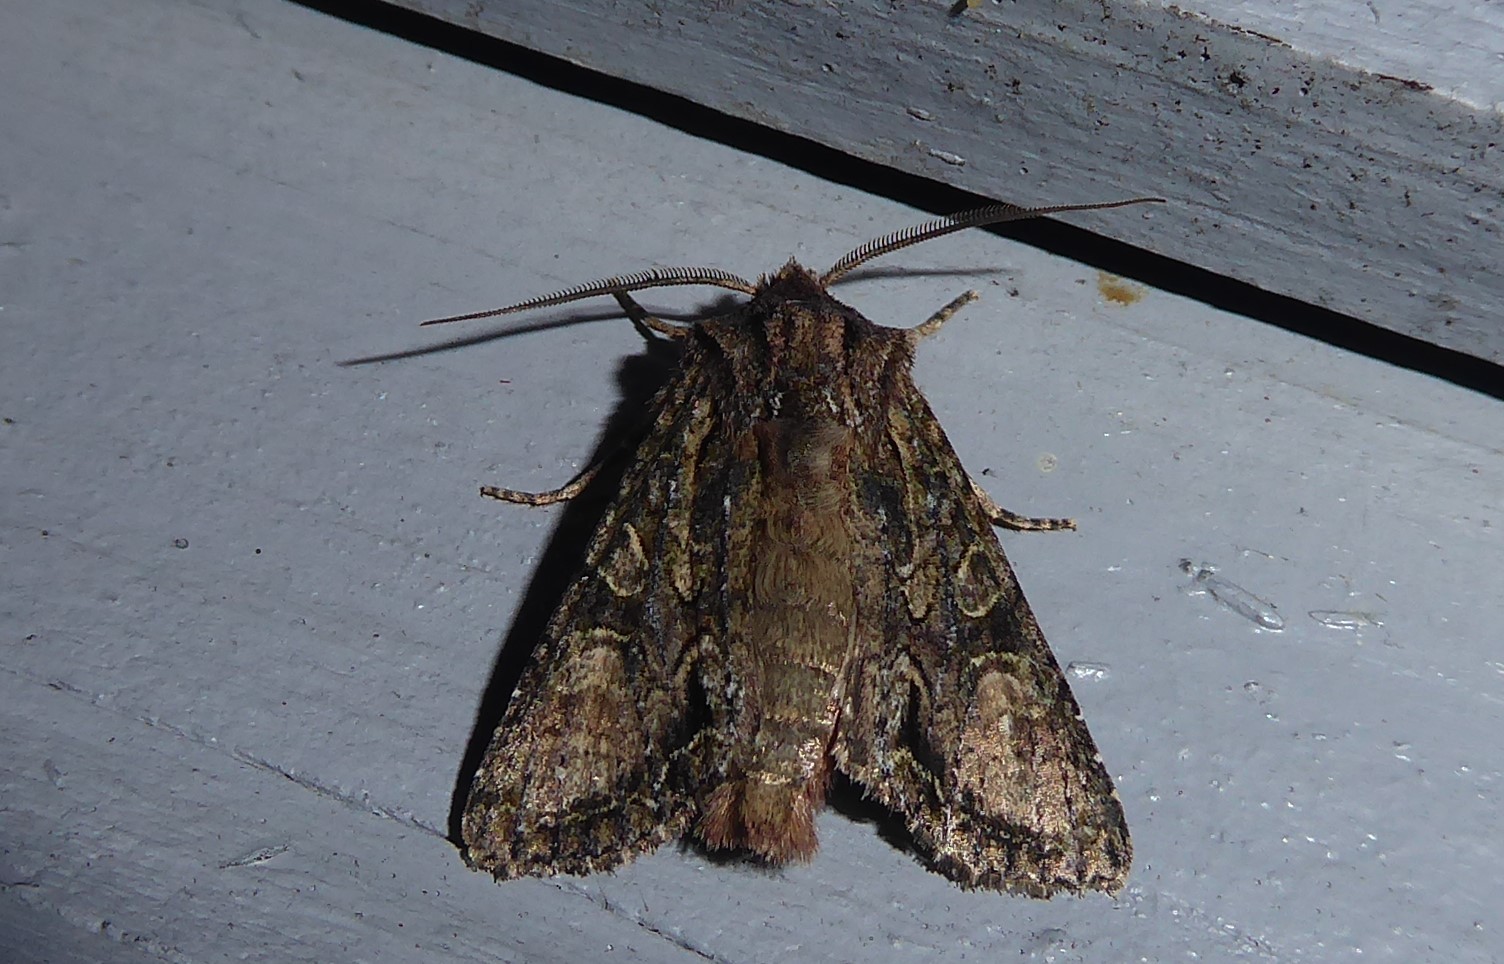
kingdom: Animalia
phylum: Arthropoda
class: Insecta
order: Lepidoptera
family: Noctuidae
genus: Ichneutica
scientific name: Ichneutica mutans
